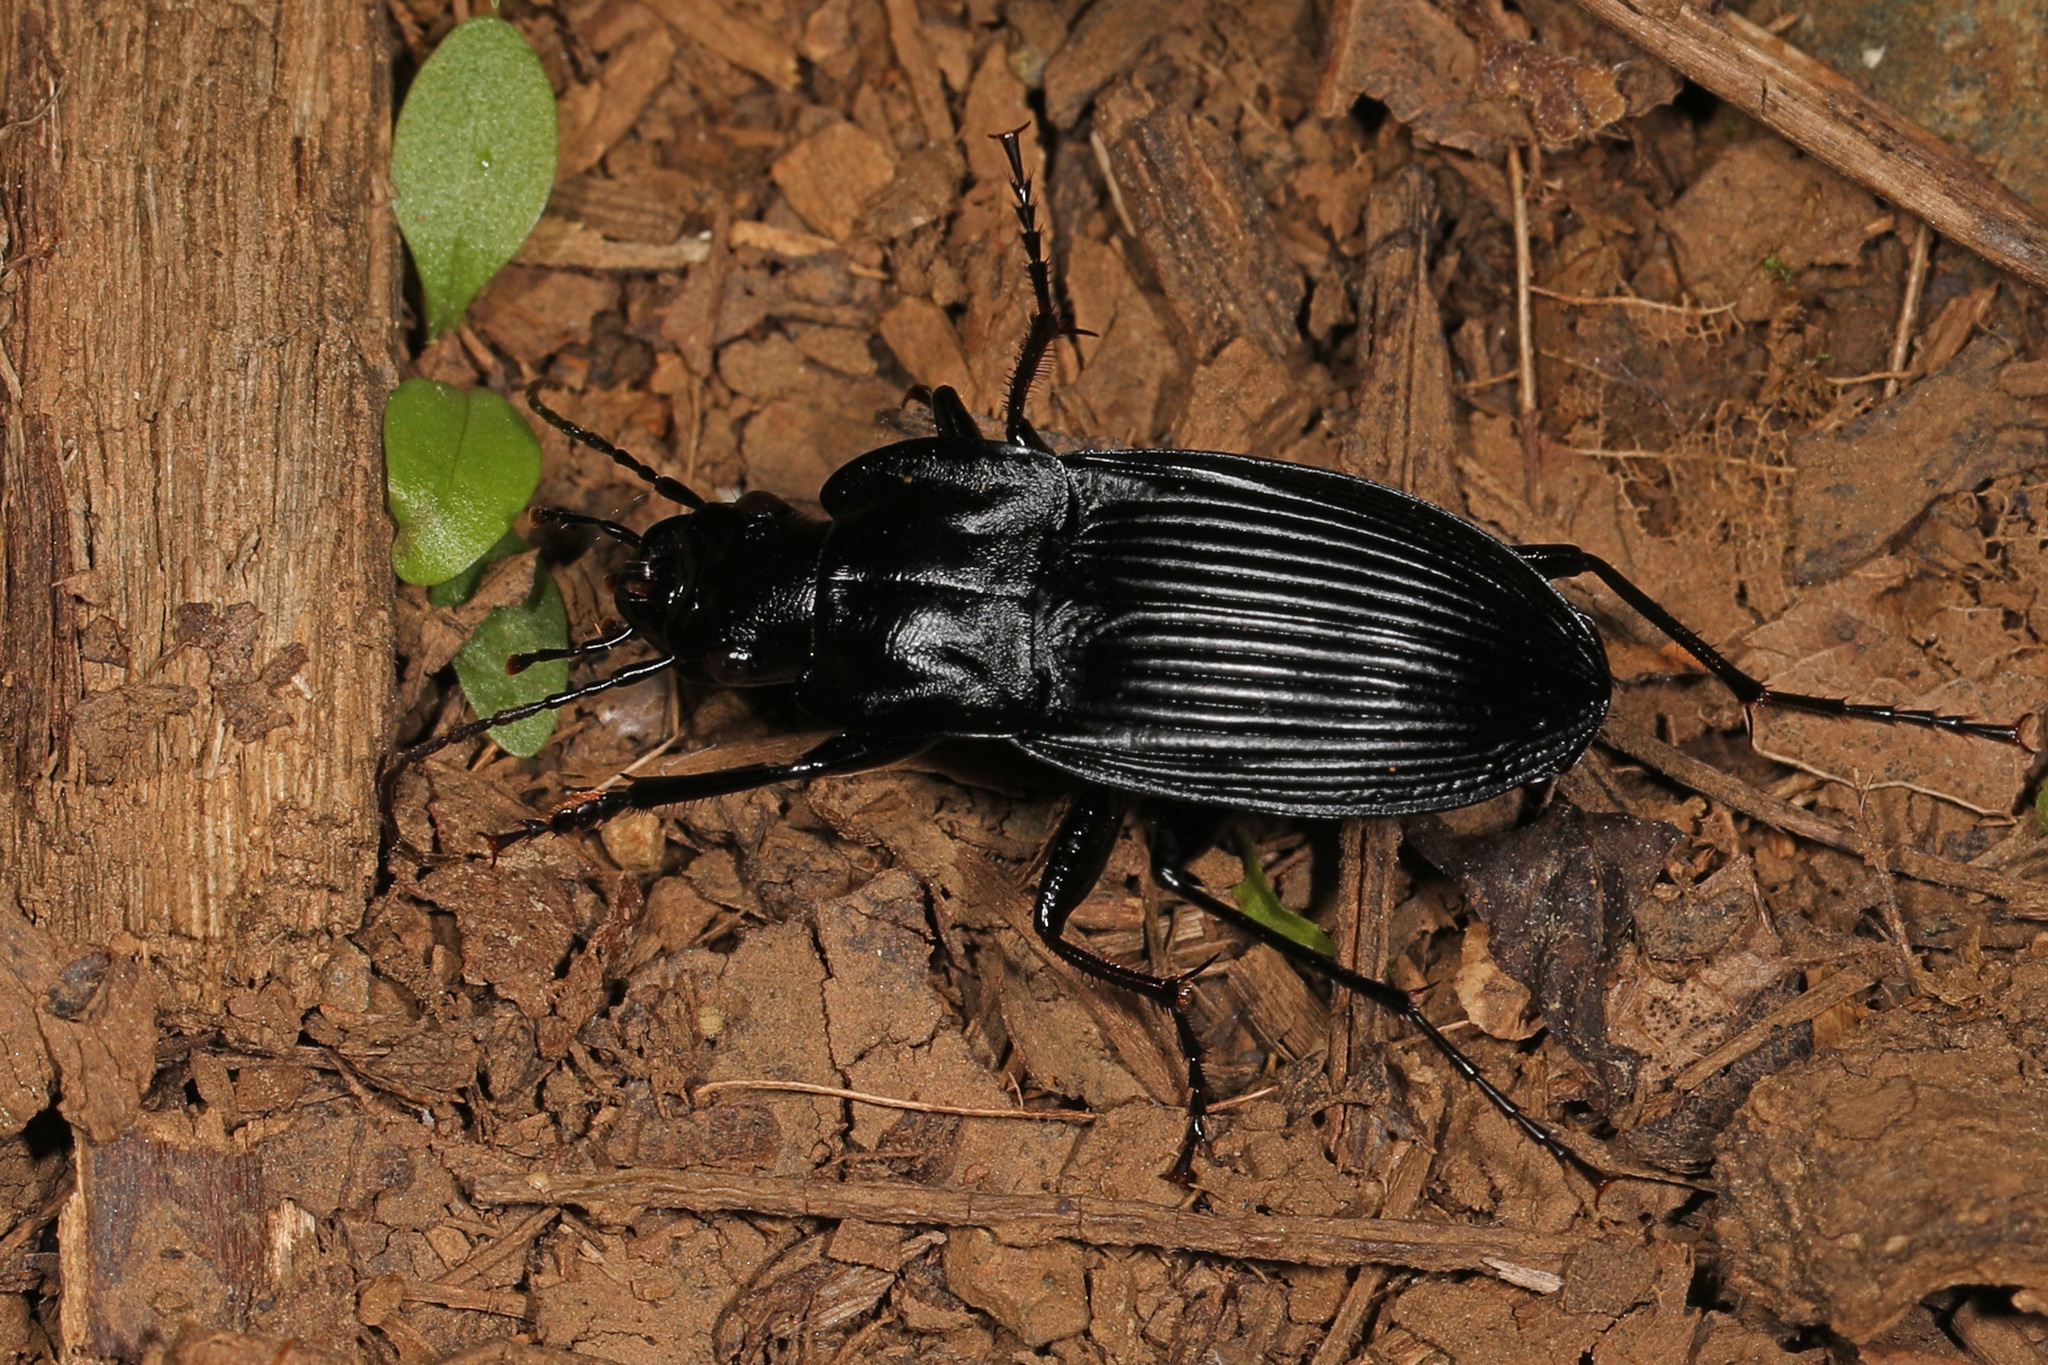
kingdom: Animalia
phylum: Arthropoda
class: Insecta
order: Coleoptera
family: Carabidae
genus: Dicaelus
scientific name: Dicaelus ambiguus
